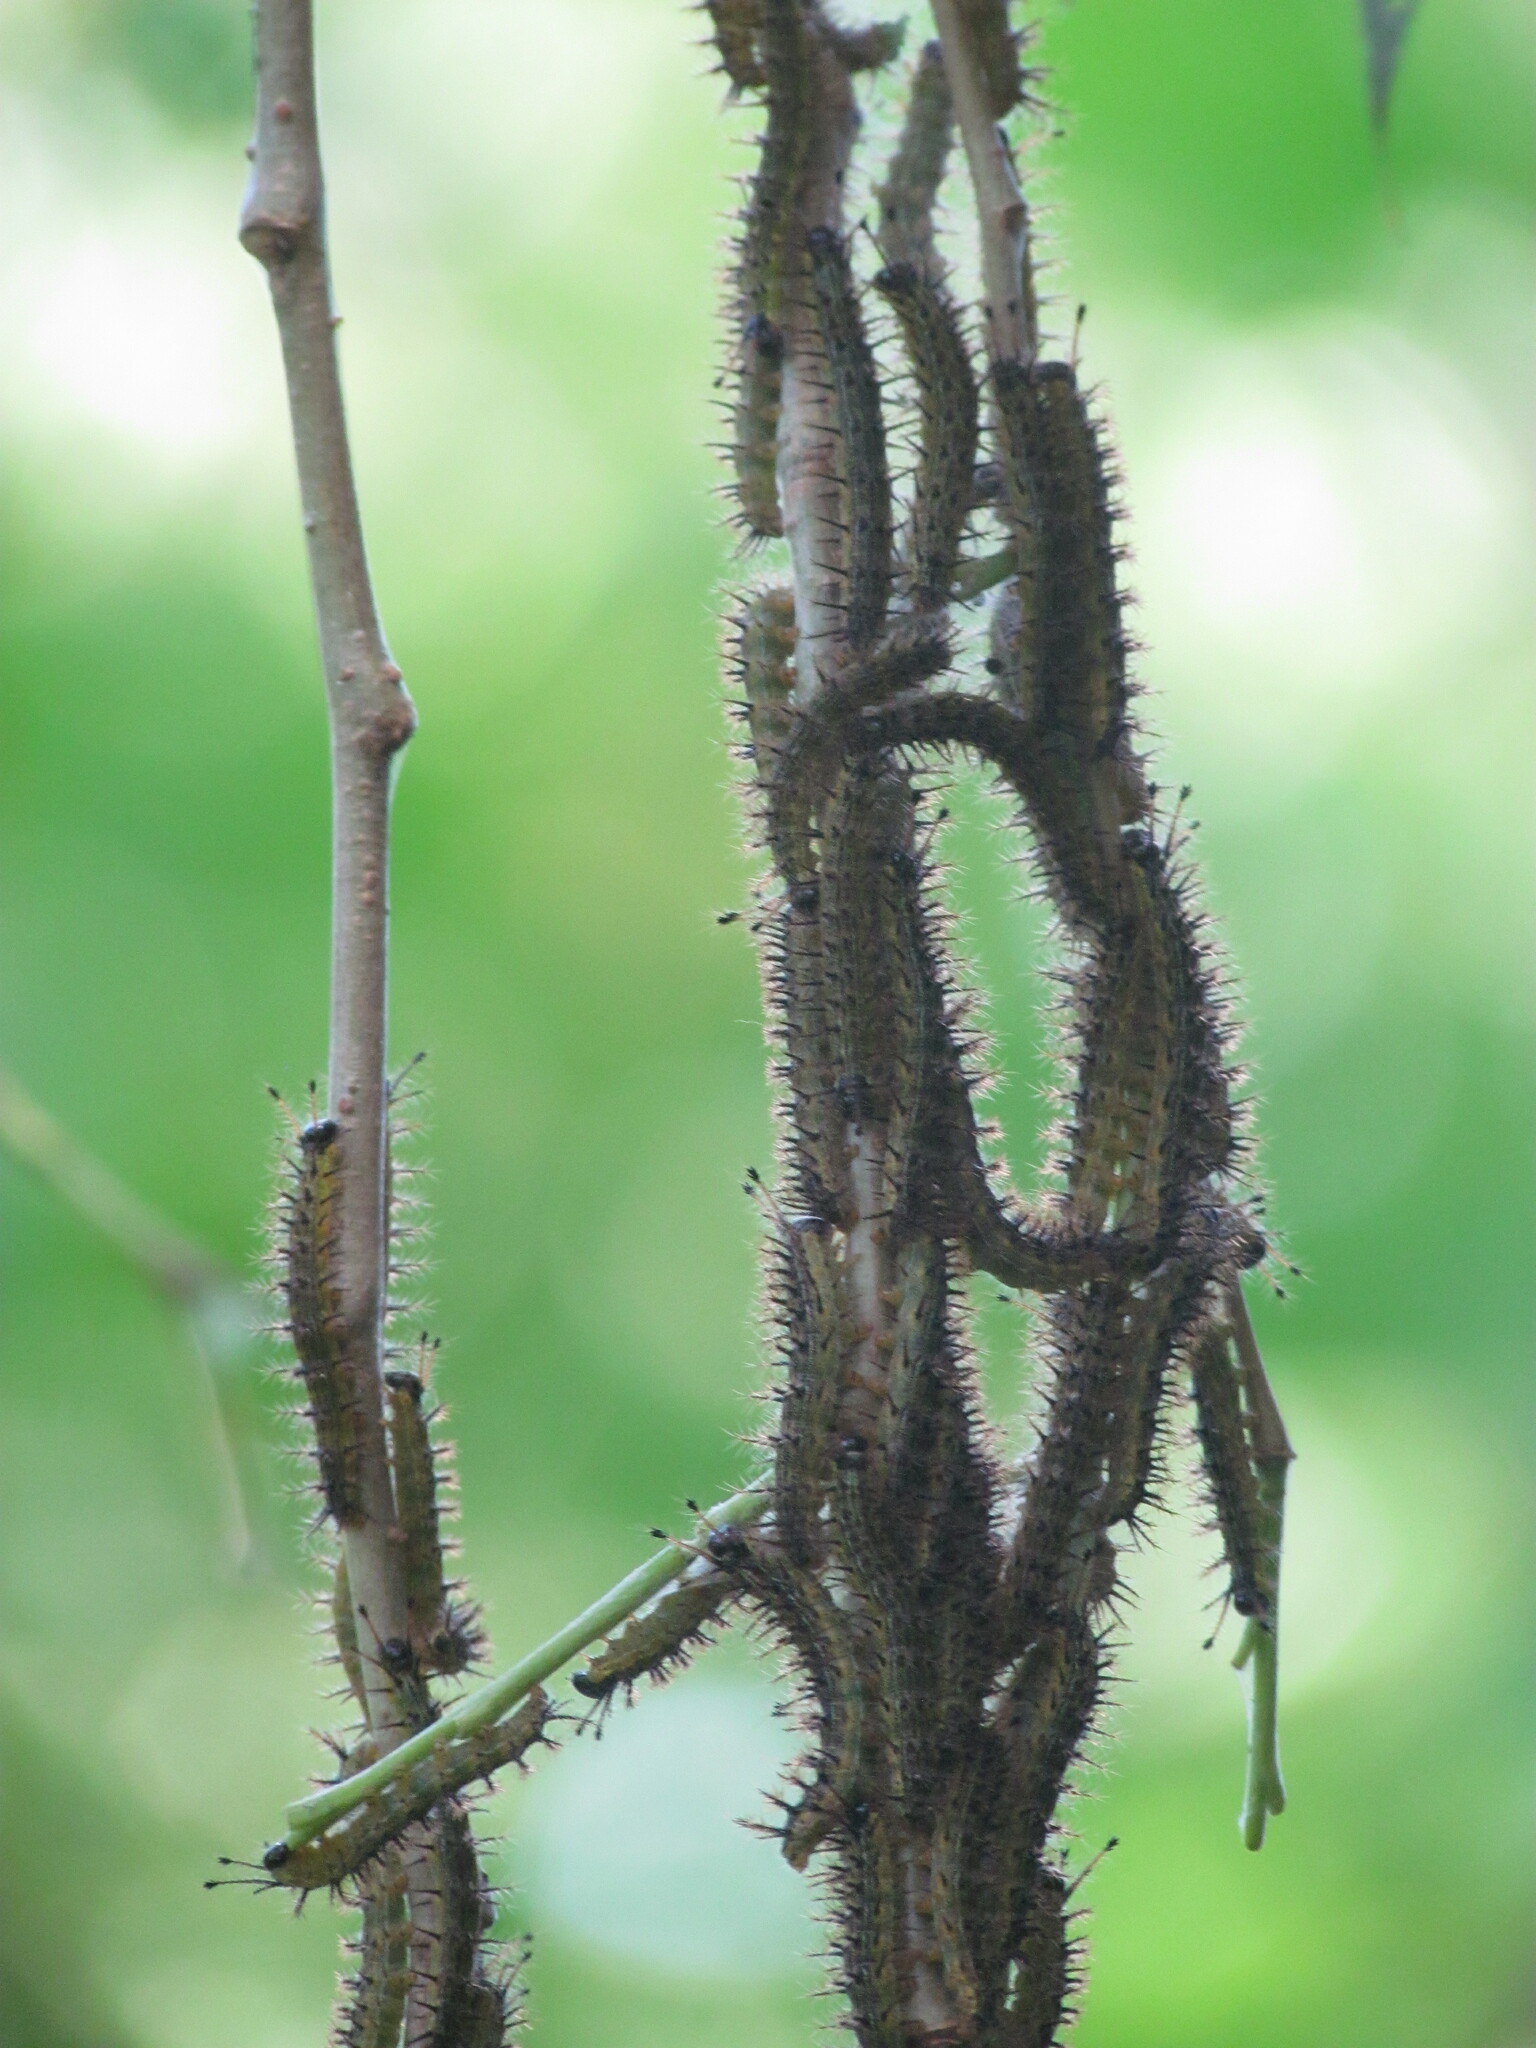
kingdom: Animalia
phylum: Arthropoda
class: Insecta
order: Lepidoptera
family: Saturniidae
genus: Hylesia
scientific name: Hylesia nigricans
